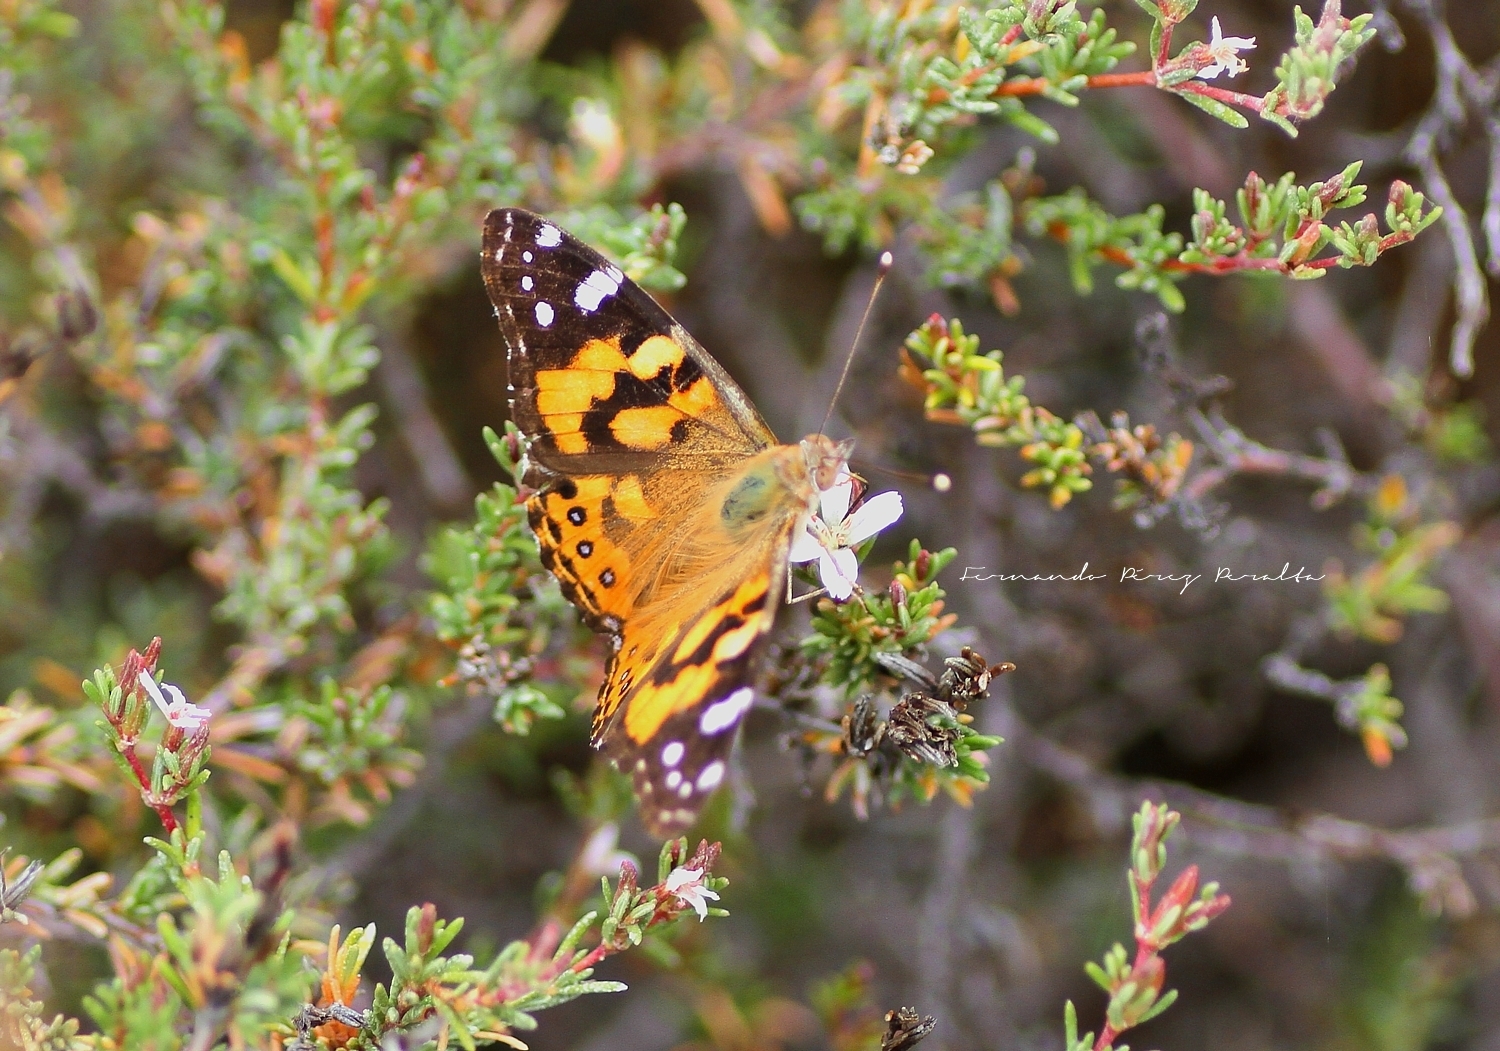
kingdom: Animalia
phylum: Arthropoda
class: Insecta
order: Lepidoptera
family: Nymphalidae
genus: Vanessa
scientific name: Vanessa kershawi
